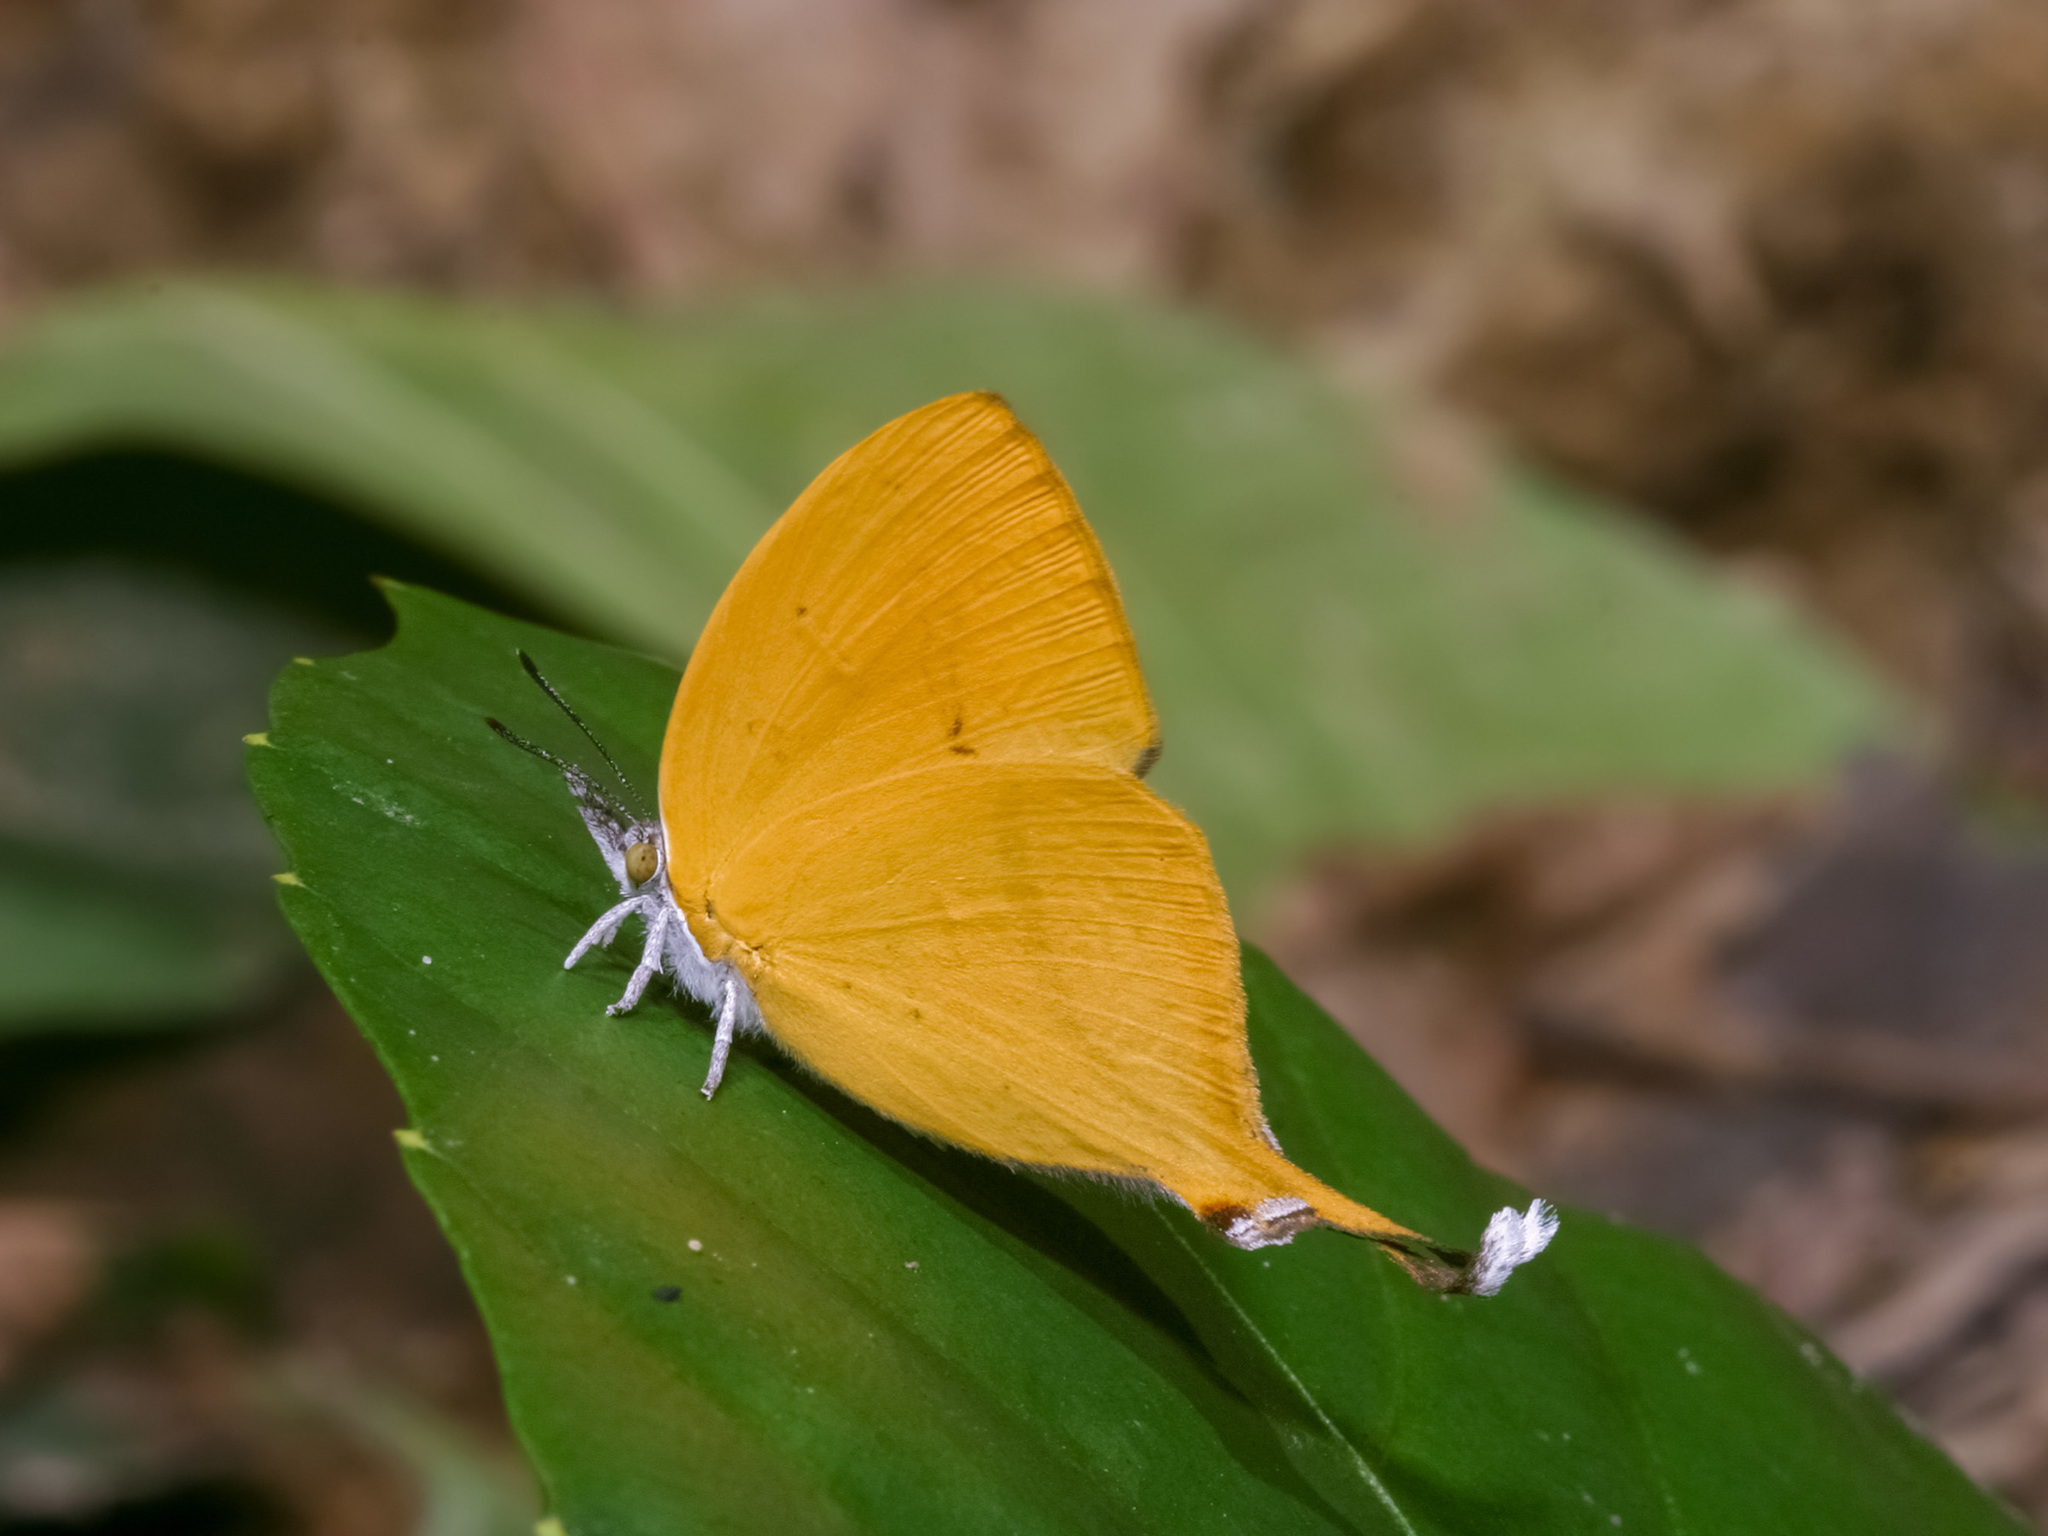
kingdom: Animalia
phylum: Arthropoda
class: Insecta
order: Lepidoptera
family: Lycaenidae
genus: Loxura
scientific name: Loxura atymnus
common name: Common yamfly
